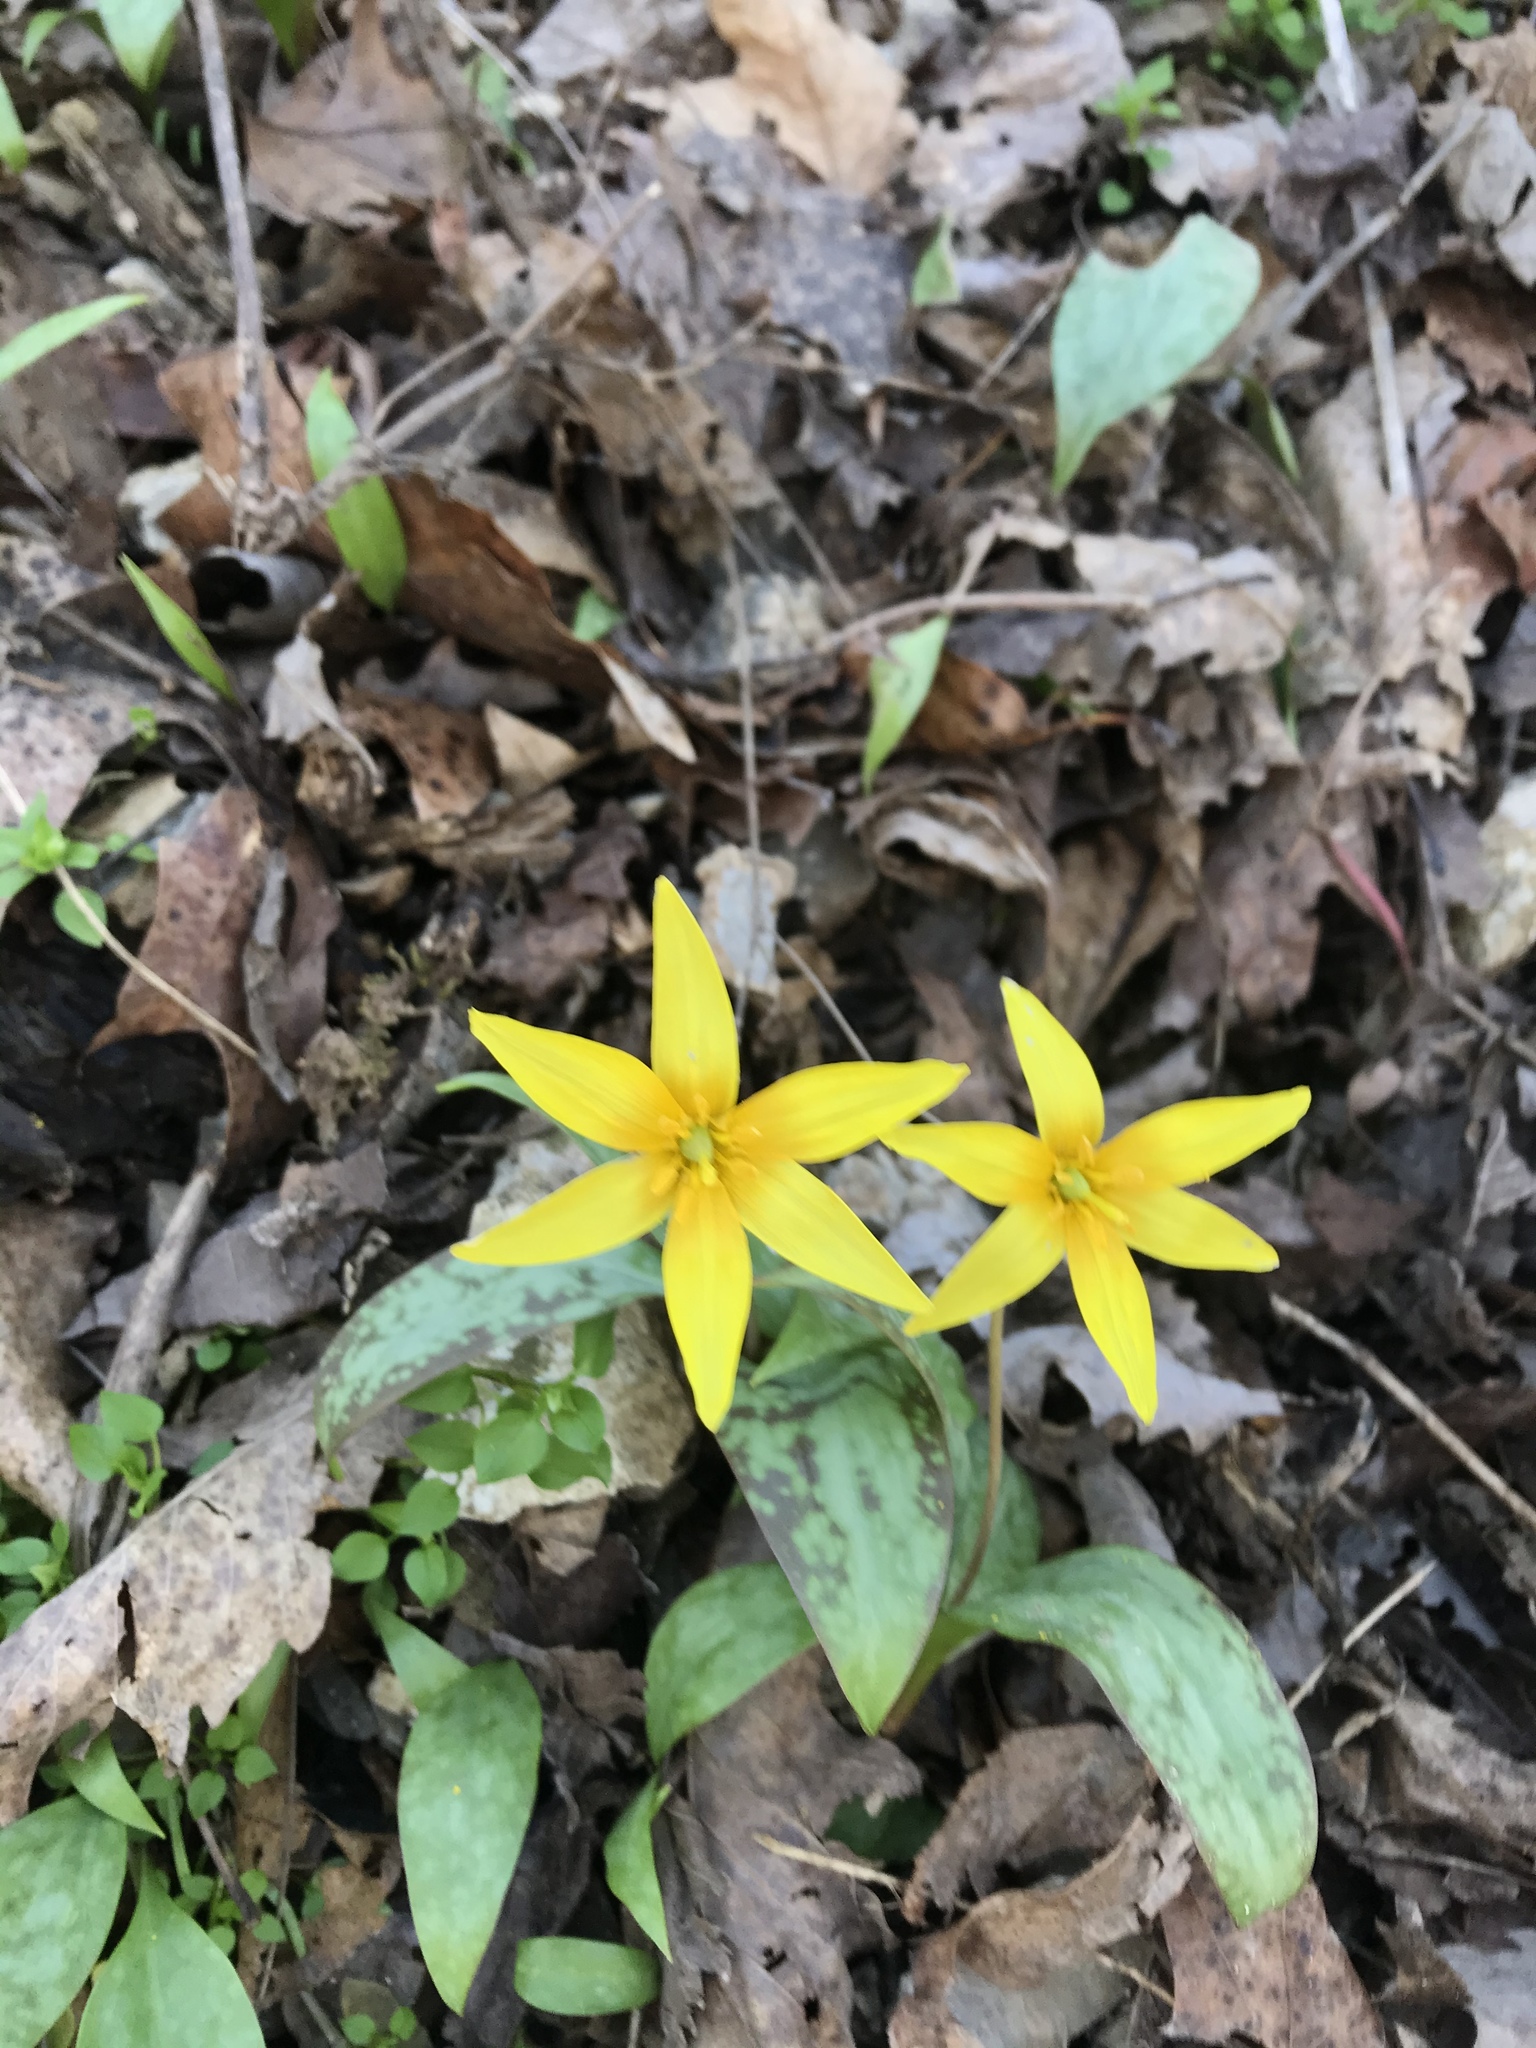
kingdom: Plantae
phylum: Tracheophyta
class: Liliopsida
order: Liliales
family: Liliaceae
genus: Erythronium
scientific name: Erythronium rostratum
